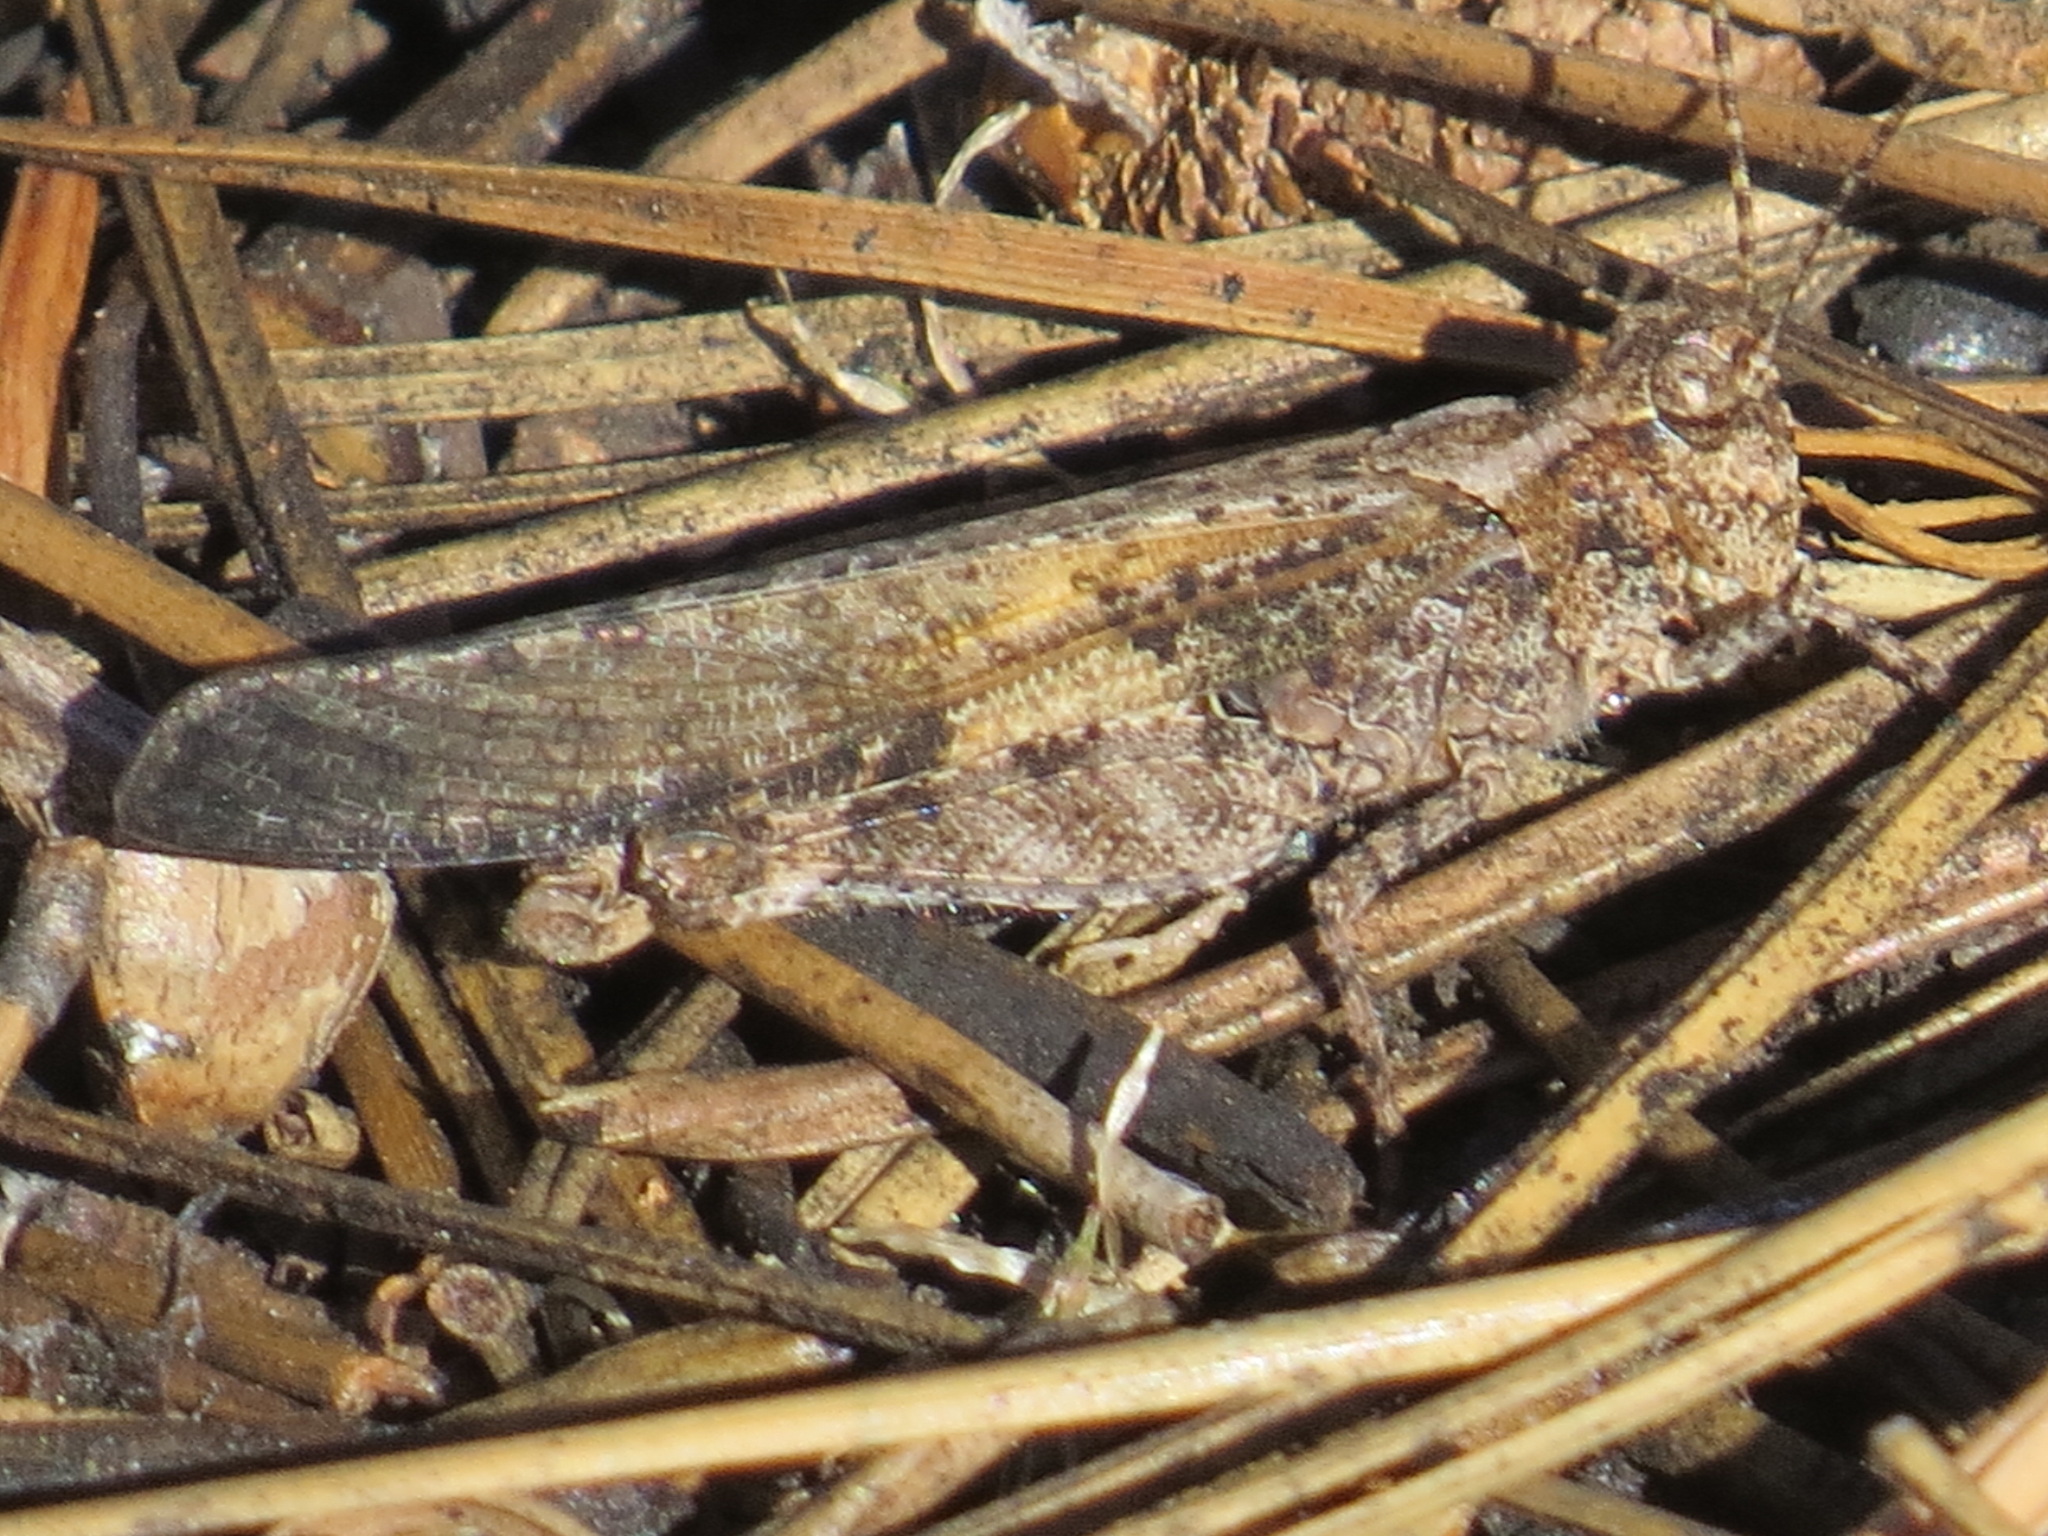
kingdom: Animalia
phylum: Arthropoda
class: Insecta
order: Orthoptera
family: Acrididae
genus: Trimerotropis
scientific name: Trimerotropis verruculata
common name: Crackling forest grasshopper
